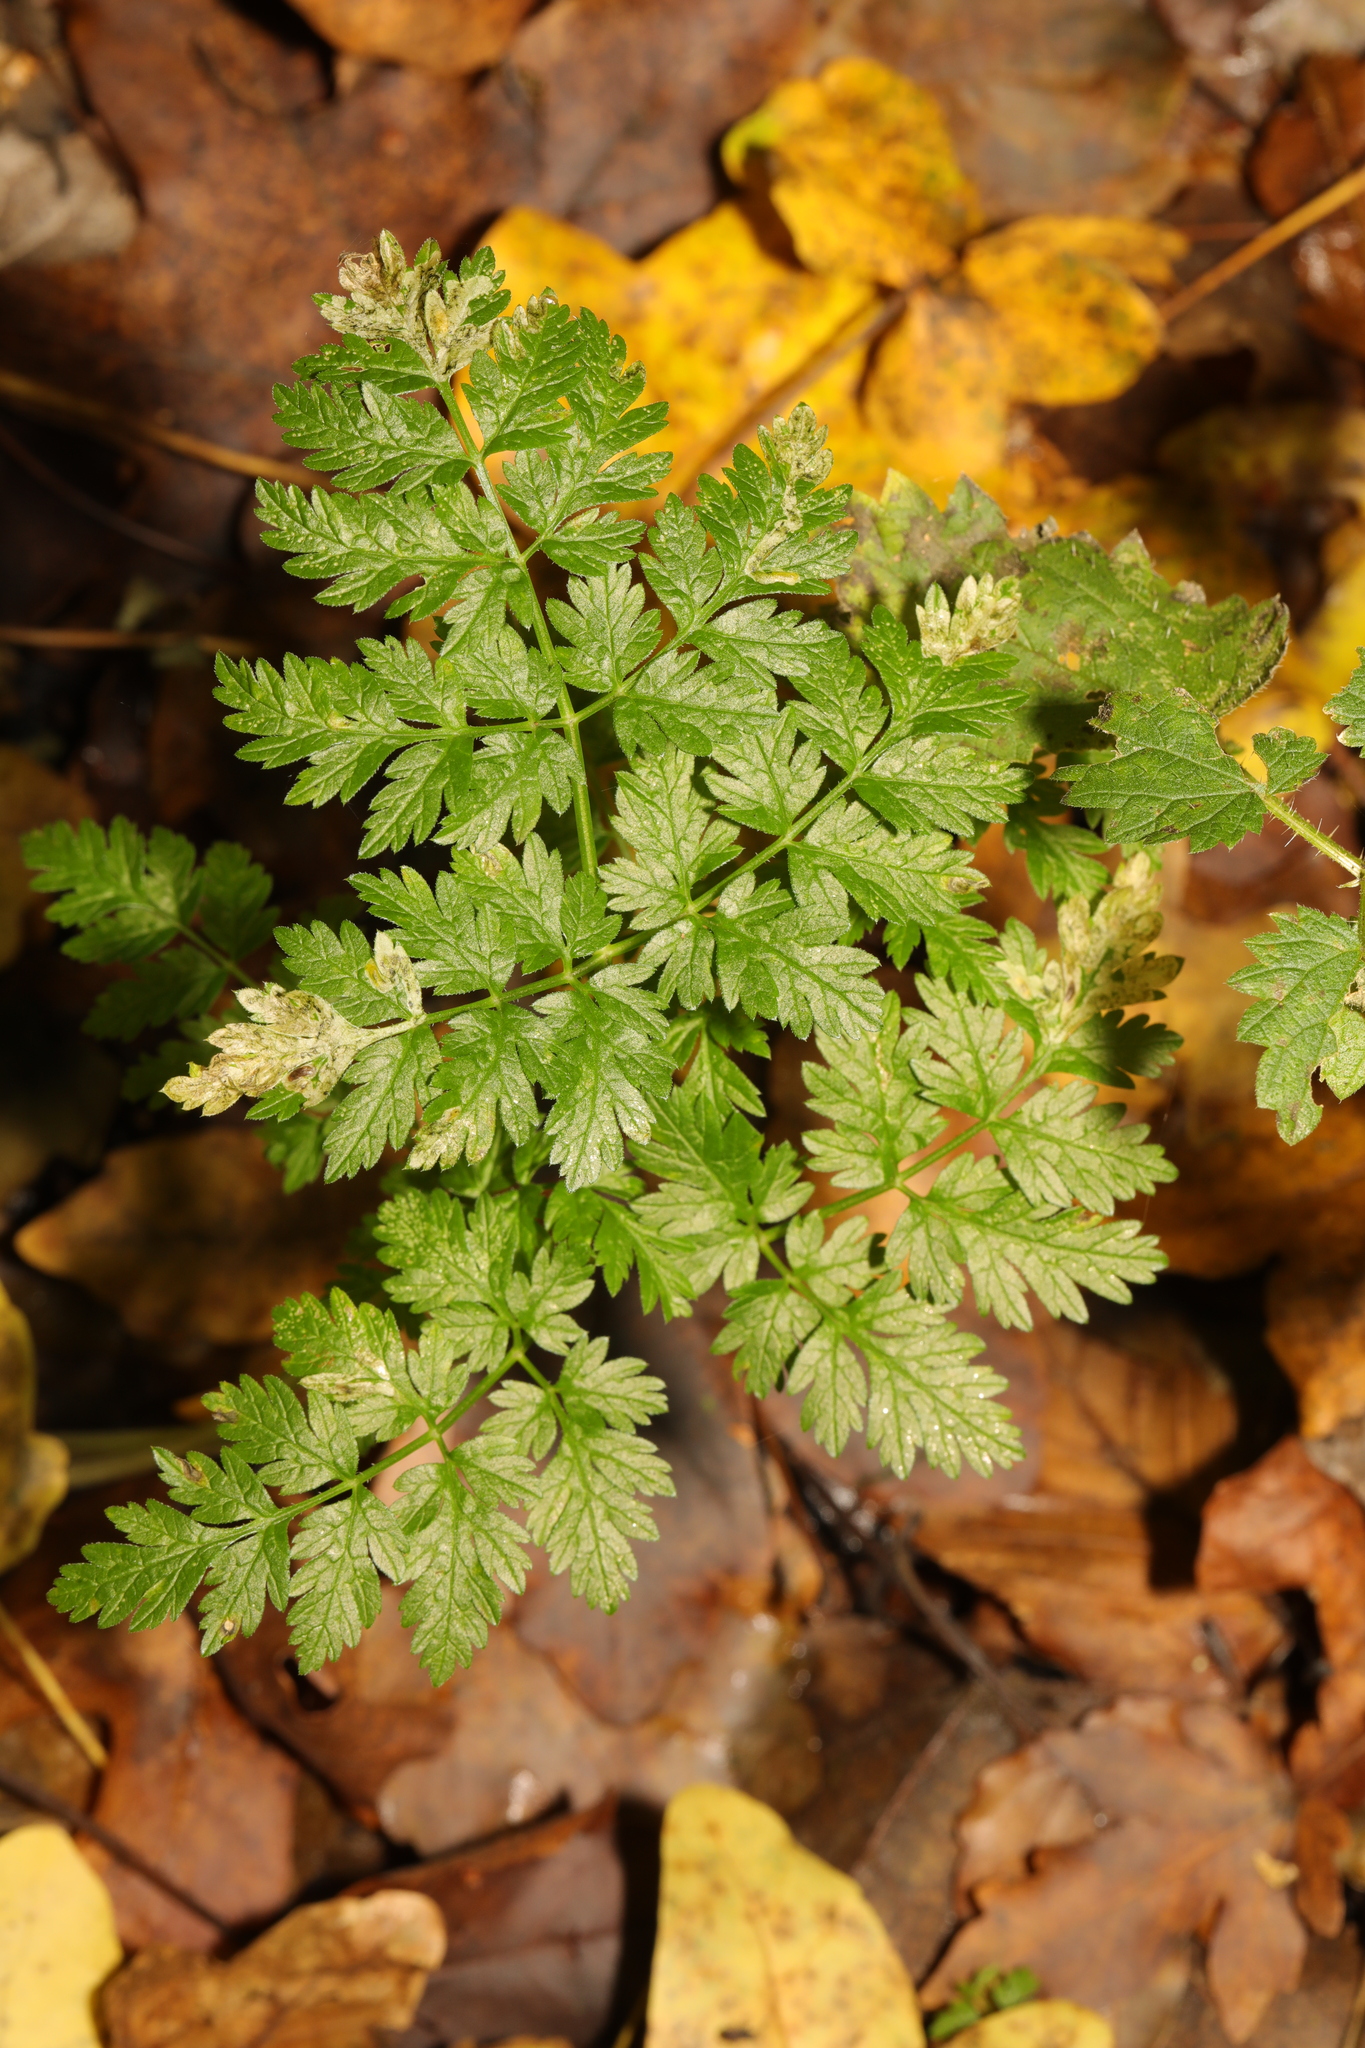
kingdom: Plantae
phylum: Tracheophyta
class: Magnoliopsida
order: Apiales
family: Apiaceae
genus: Anthriscus
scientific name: Anthriscus sylvestris
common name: Cow parsley
